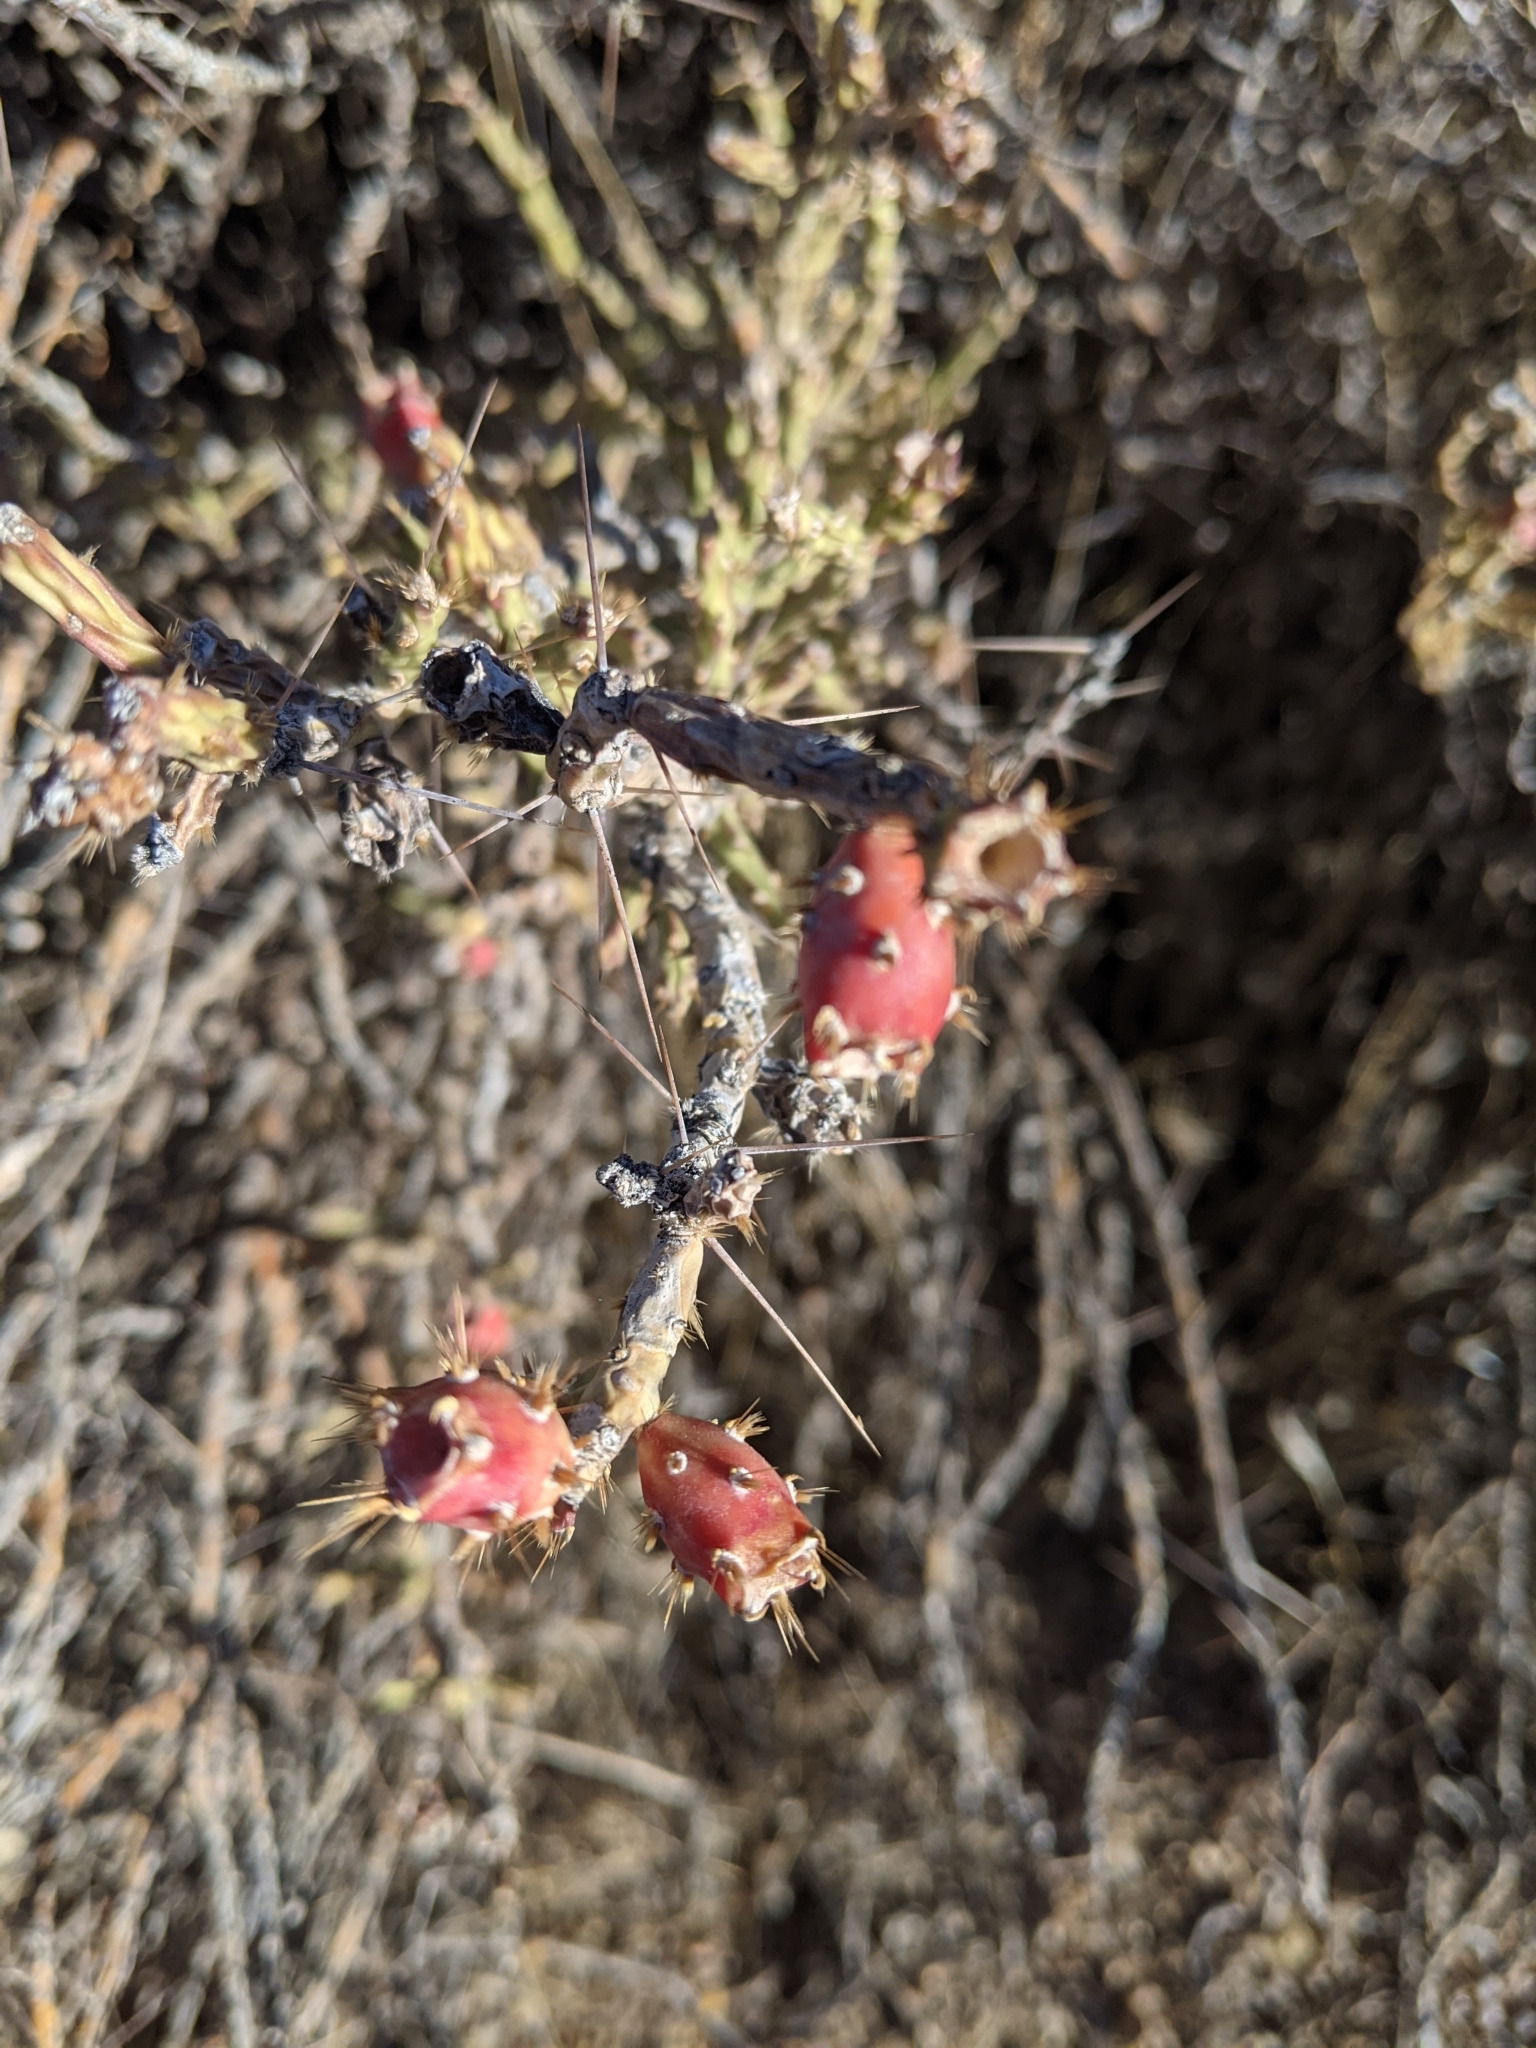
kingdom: Plantae
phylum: Tracheophyta
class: Magnoliopsida
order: Caryophyllales
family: Cactaceae
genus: Cylindropuntia
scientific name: Cylindropuntia leptocaulis
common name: Christmas cactus
